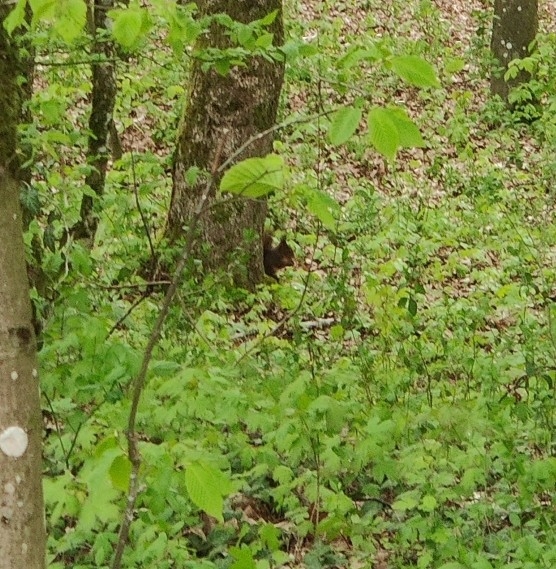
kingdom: Animalia
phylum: Chordata
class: Mammalia
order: Rodentia
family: Sciuridae
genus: Sciurus
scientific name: Sciurus vulgaris
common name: Eurasian red squirrel
